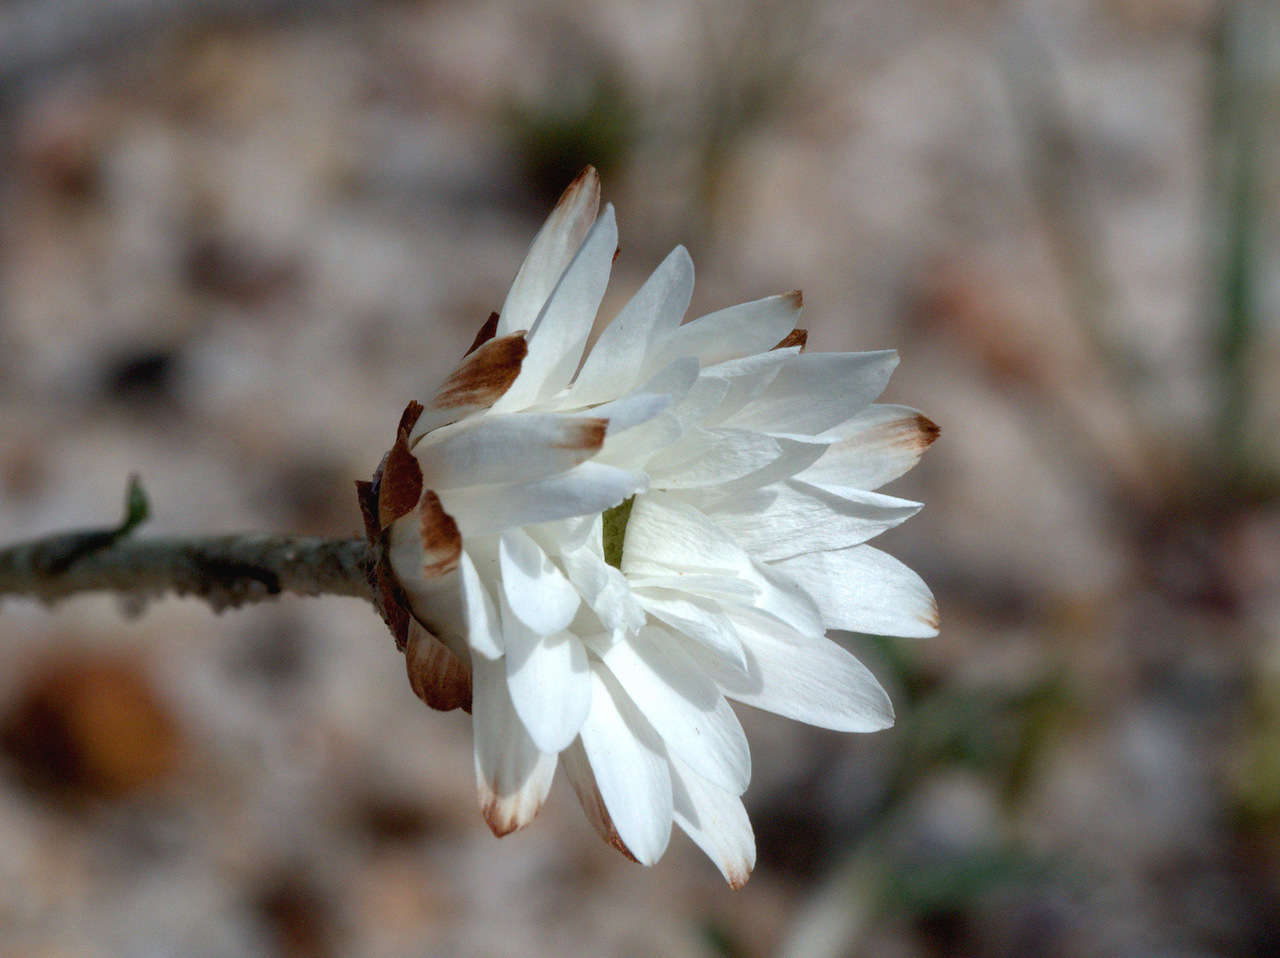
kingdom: Plantae
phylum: Tracheophyta
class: Magnoliopsida
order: Asterales
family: Asteraceae
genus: Argentipallium
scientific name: Argentipallium obtusifolium
